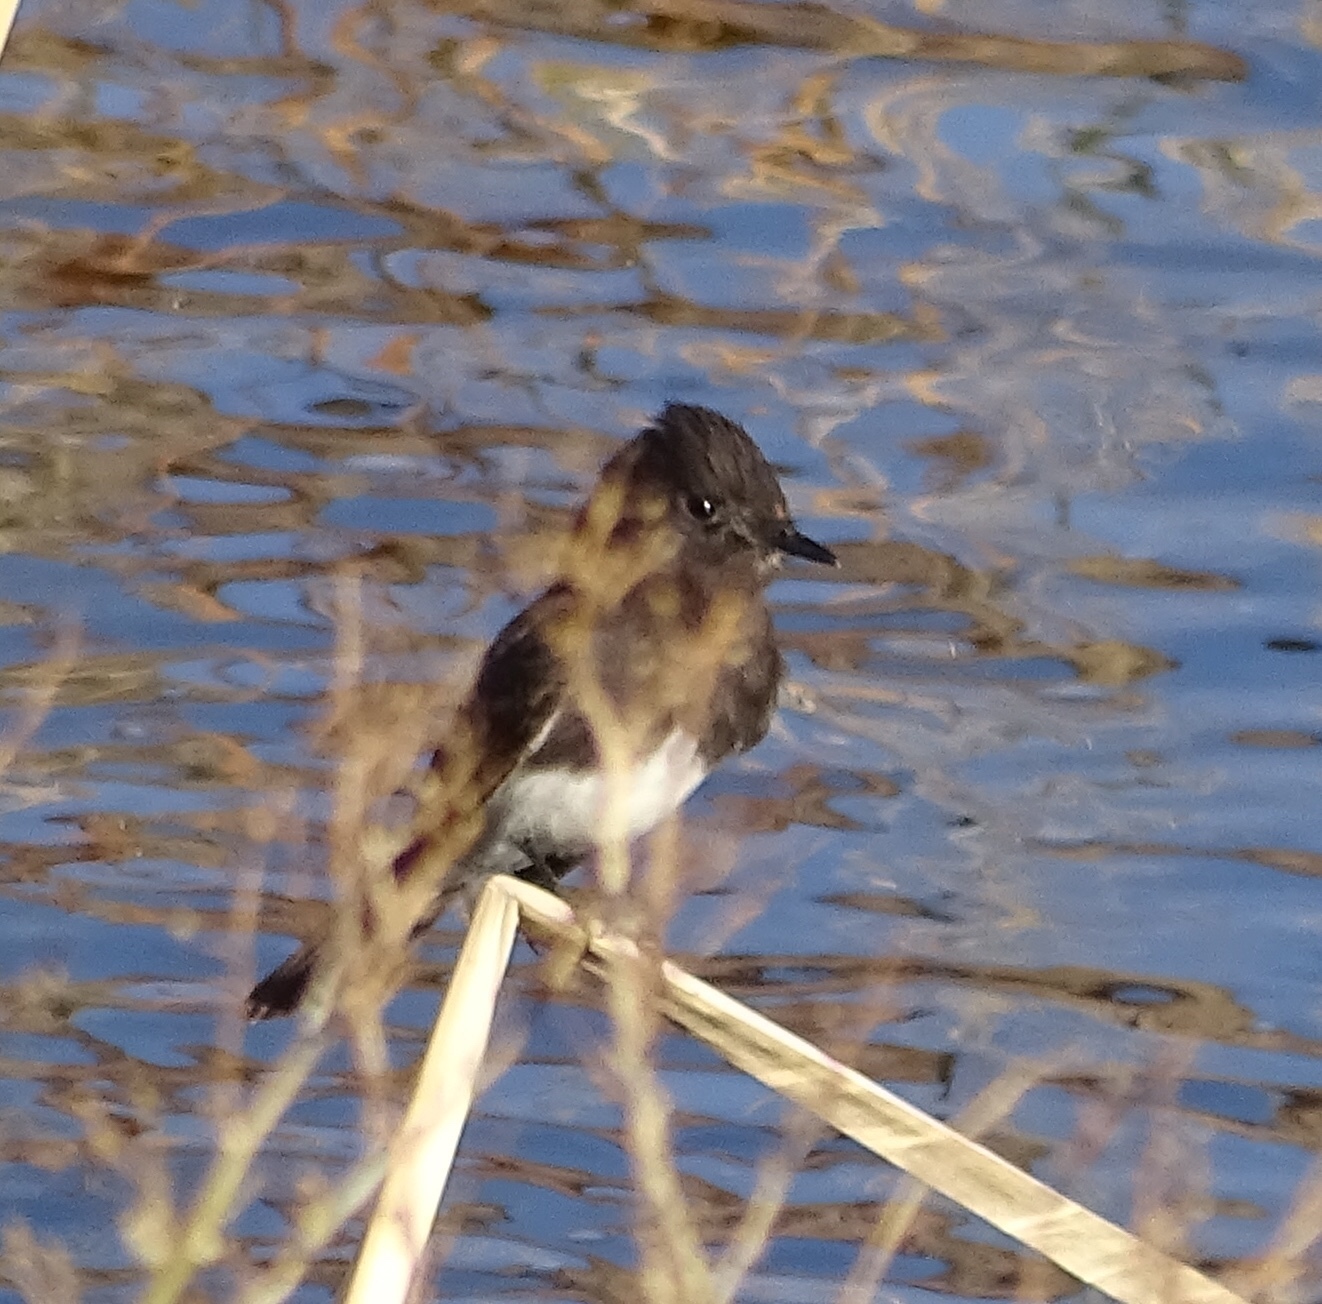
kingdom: Animalia
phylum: Chordata
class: Aves
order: Passeriformes
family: Tyrannidae
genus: Sayornis
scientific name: Sayornis nigricans
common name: Black phoebe
